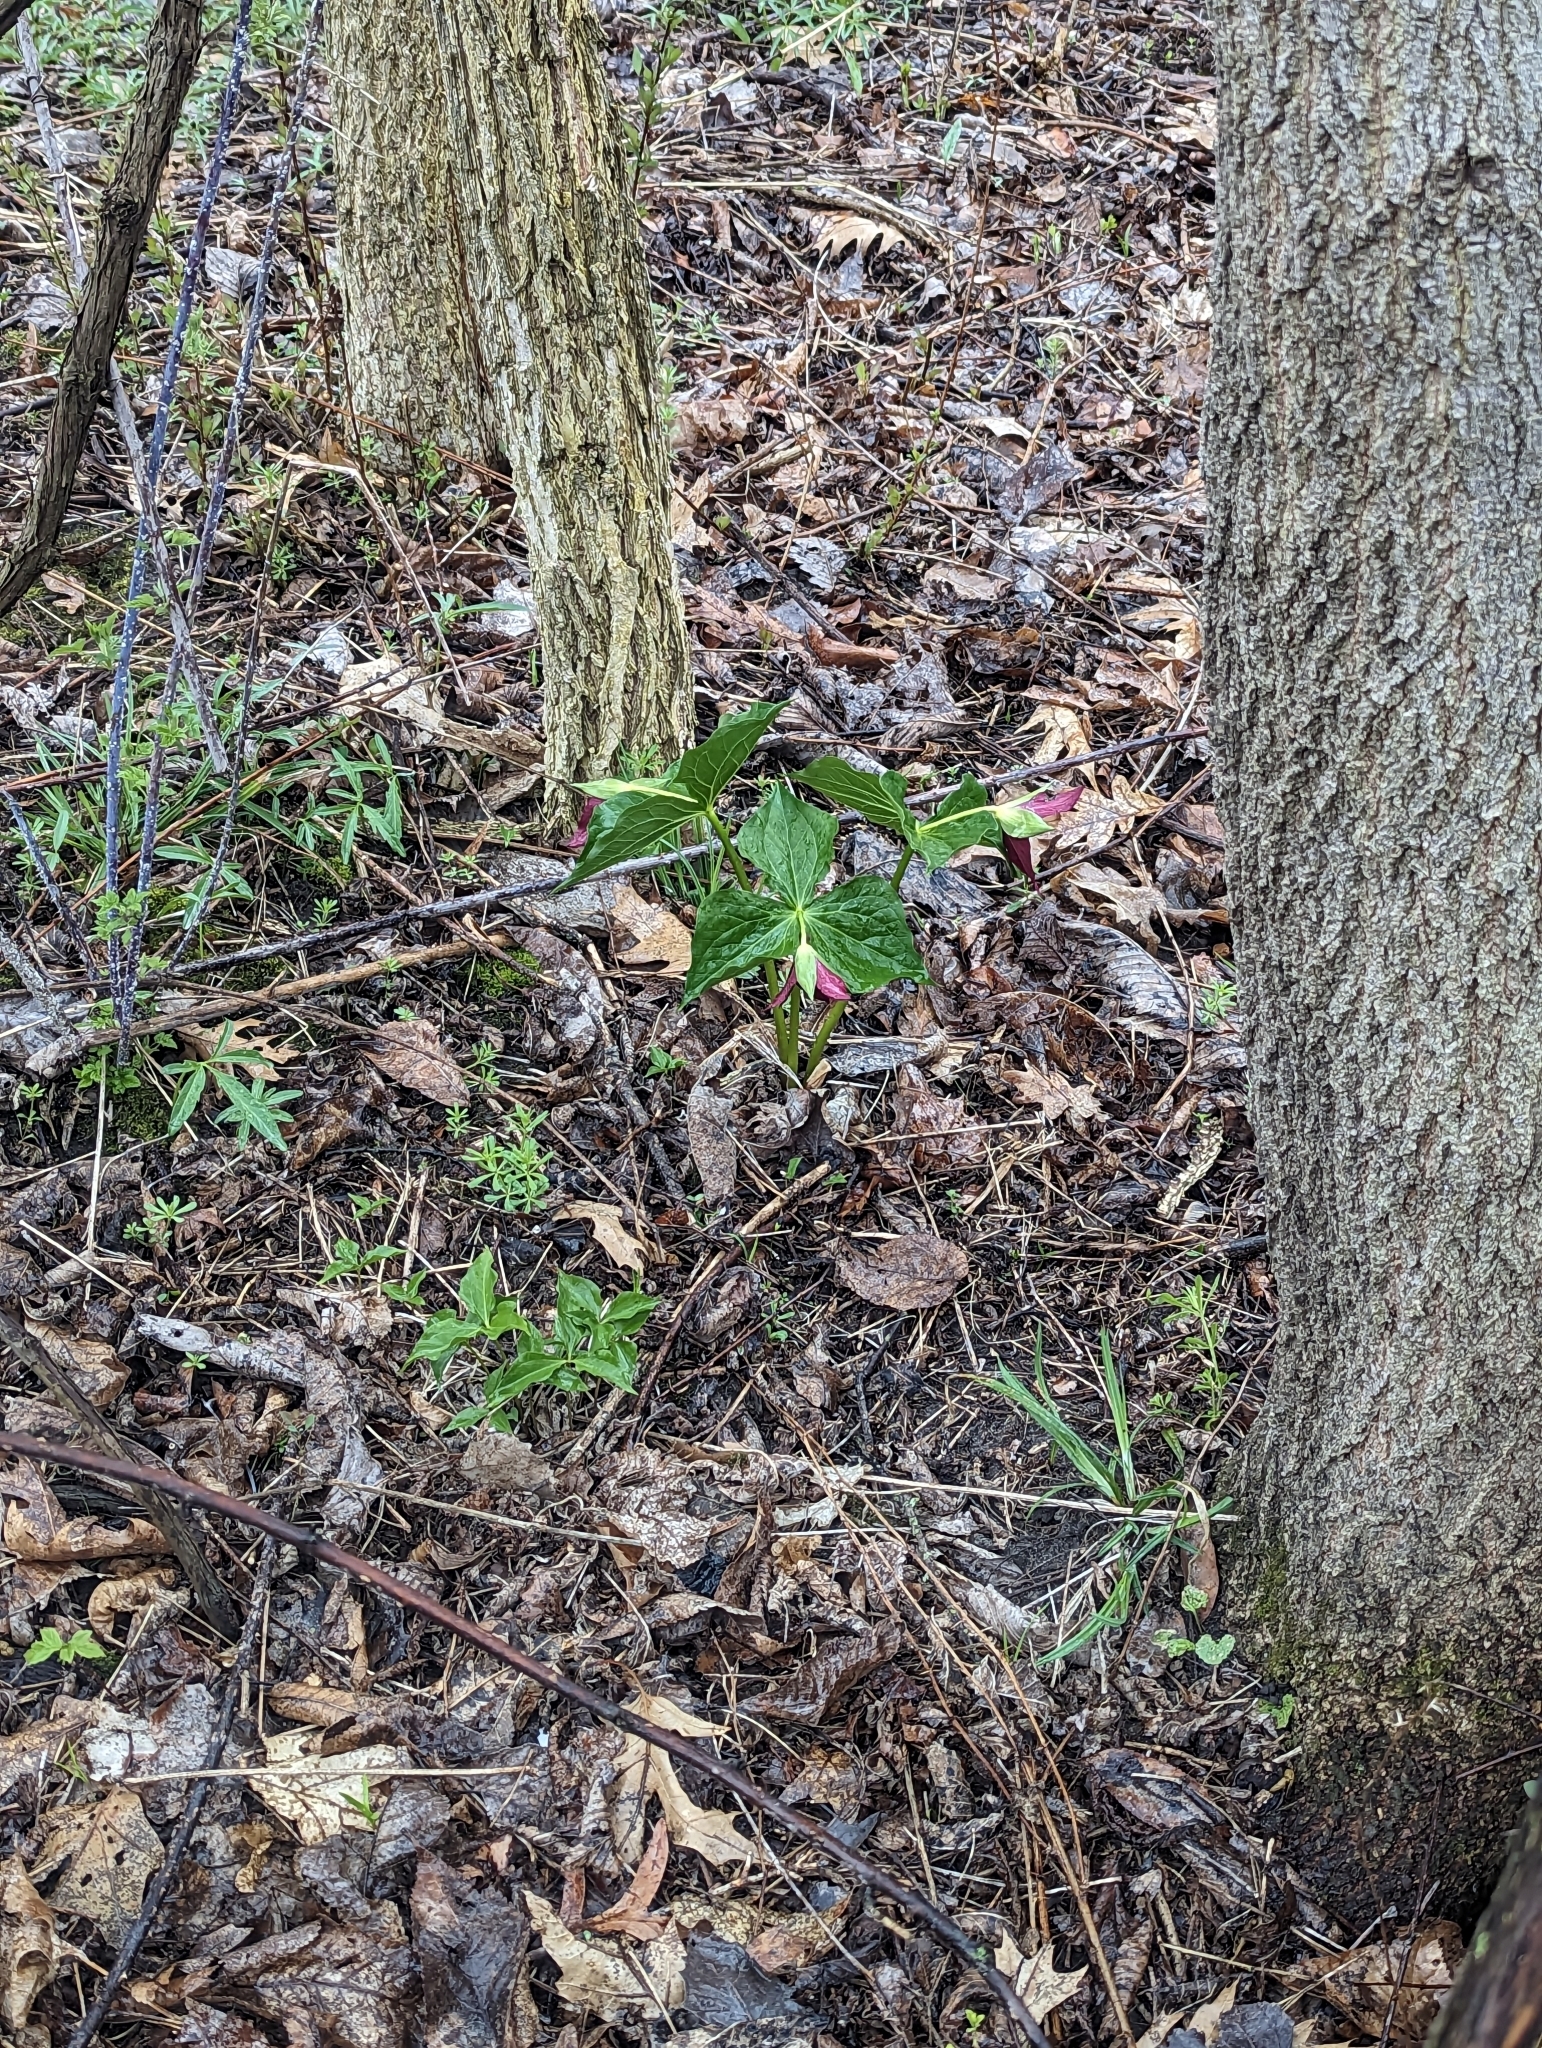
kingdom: Plantae
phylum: Tracheophyta
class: Liliopsida
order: Liliales
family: Melanthiaceae
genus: Trillium
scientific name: Trillium erectum
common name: Purple trillium
